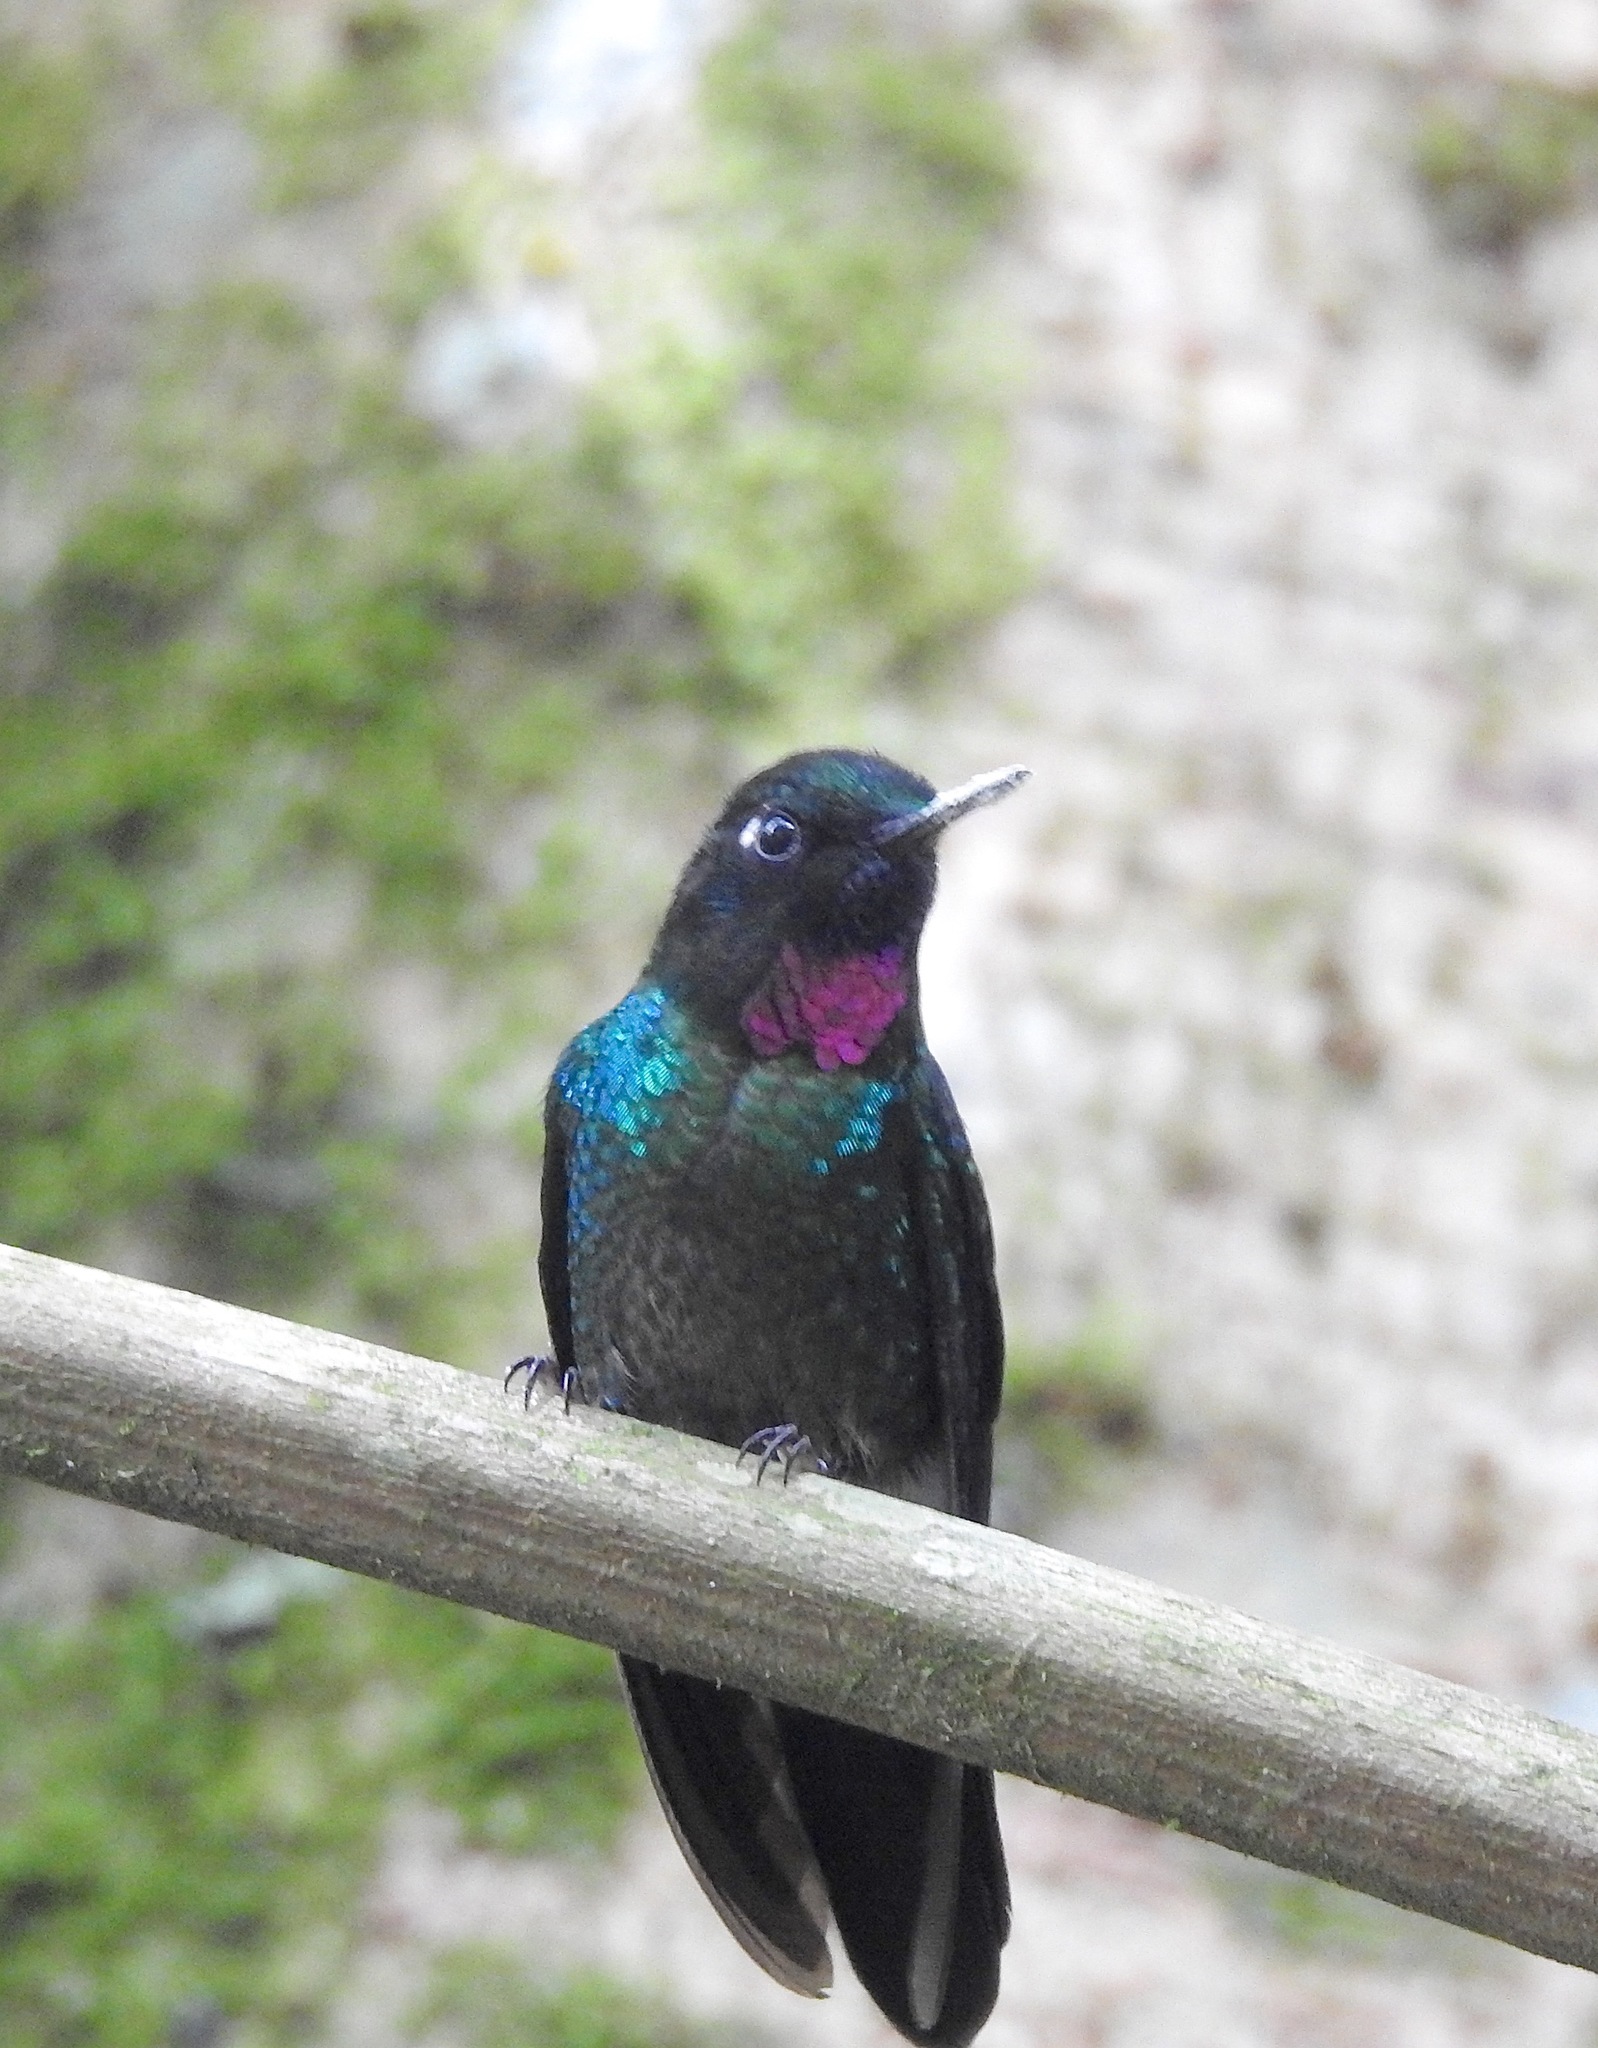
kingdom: Animalia
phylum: Chordata
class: Aves
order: Apodiformes
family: Trochilidae
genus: Heliangelus
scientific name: Heliangelus exortis
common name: Tourmaline sunangel
